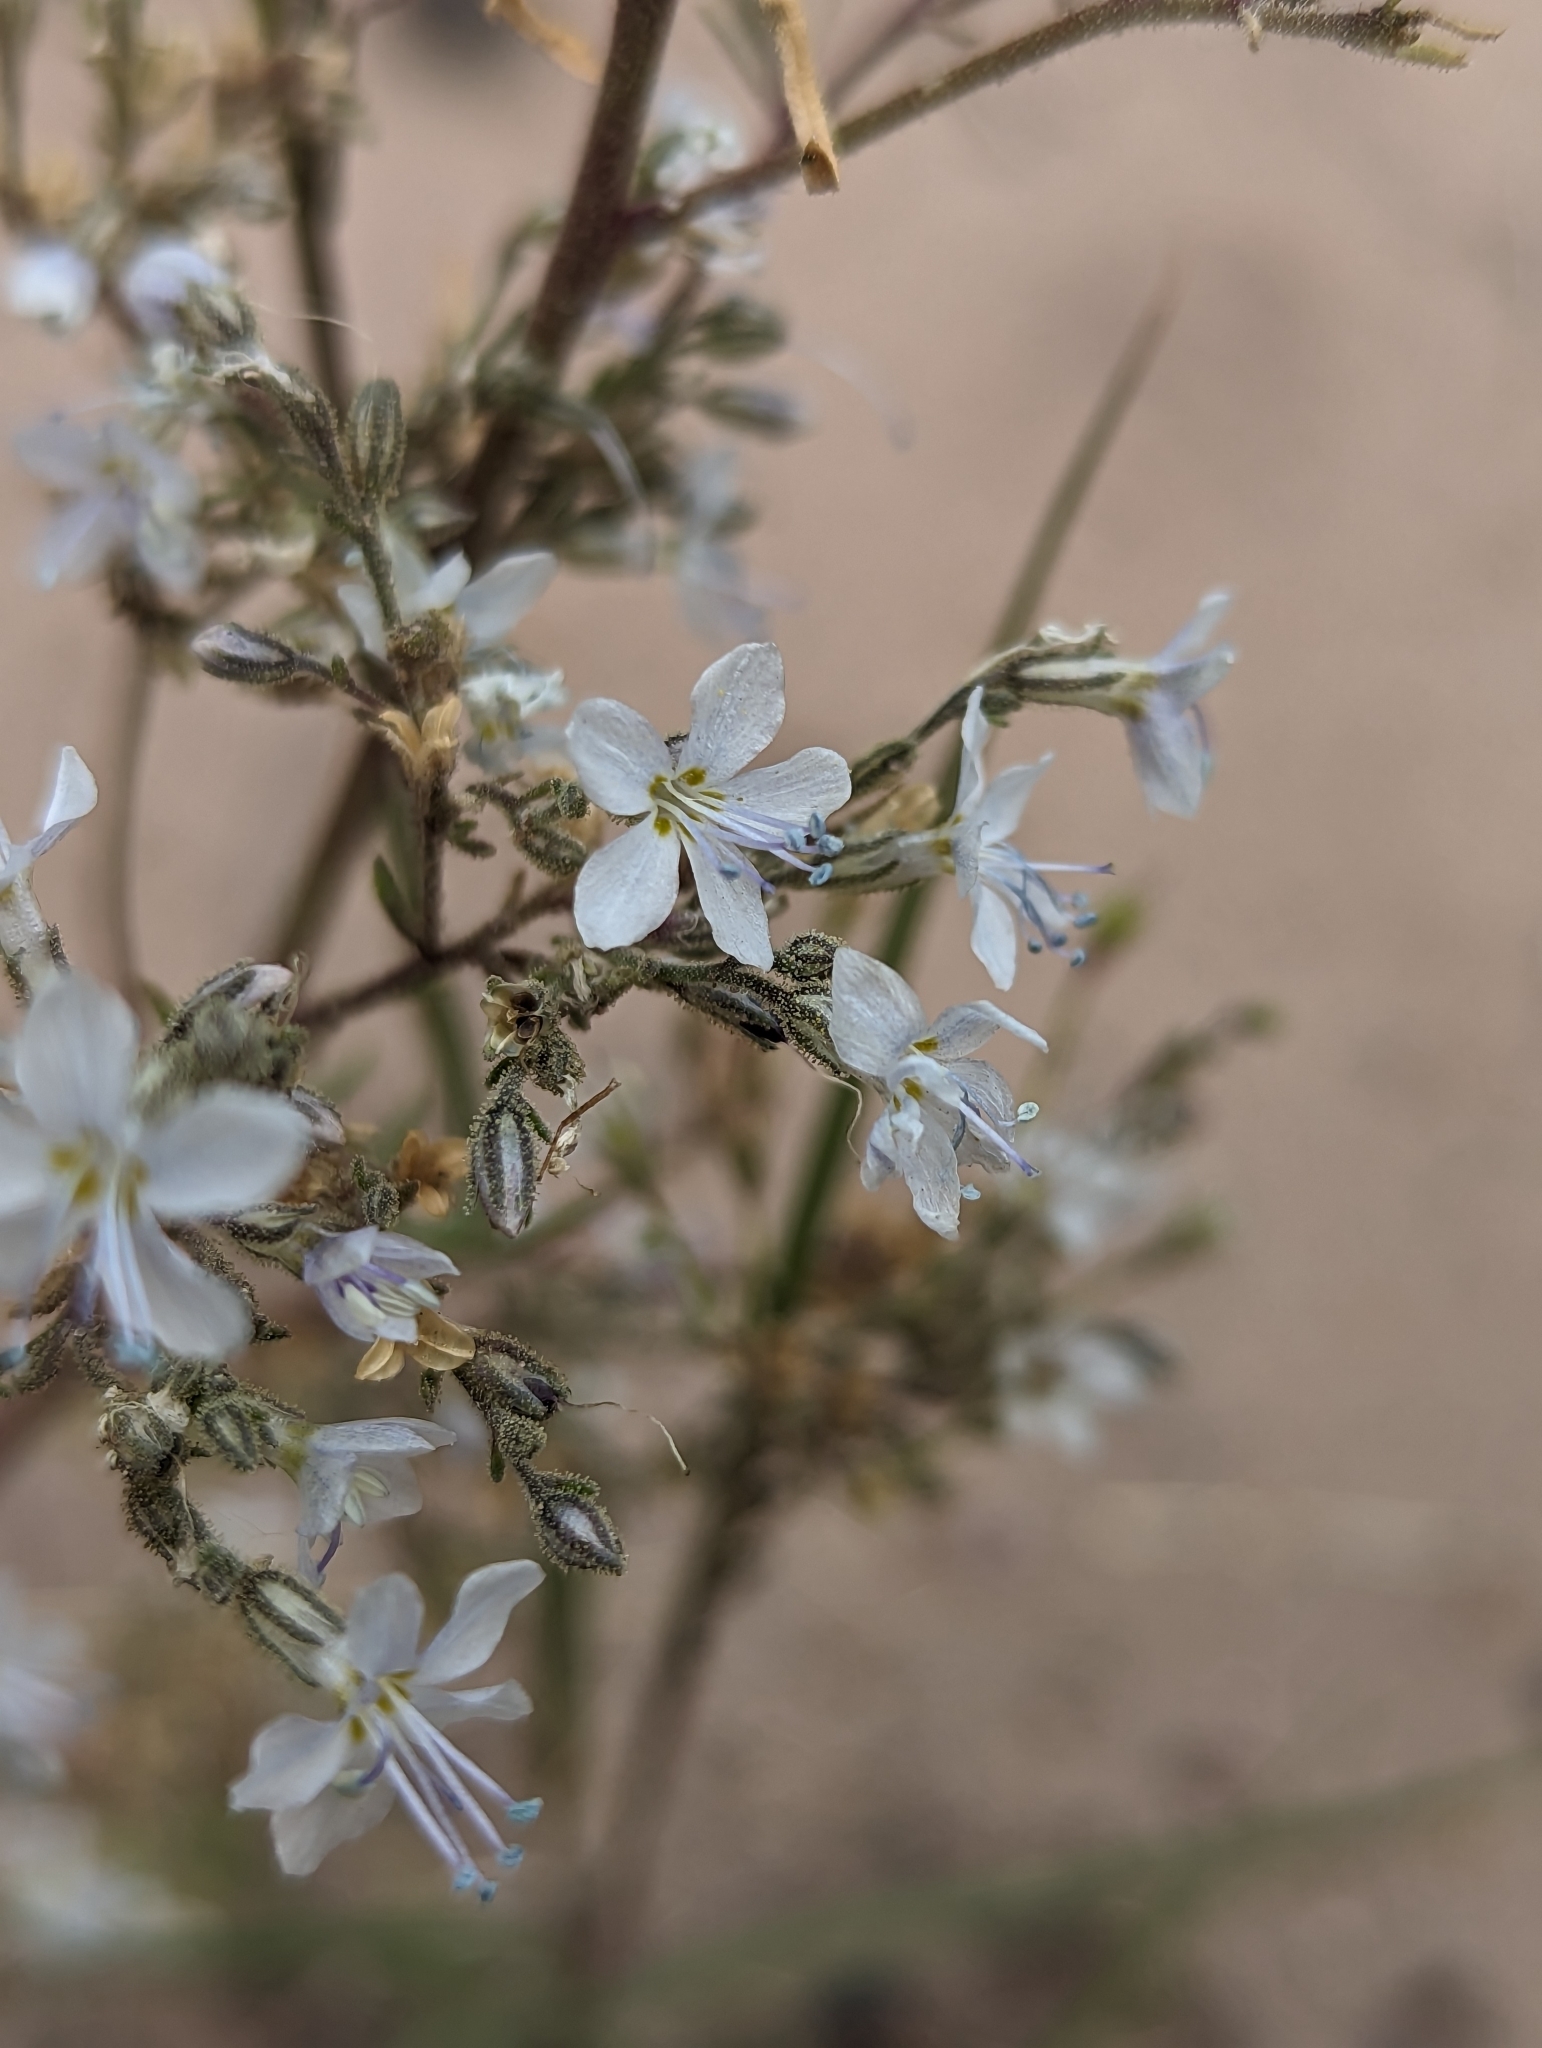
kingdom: Plantae
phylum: Tracheophyta
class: Magnoliopsida
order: Ericales
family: Polemoniaceae
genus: Aliciella
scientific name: Aliciella pinnatifida
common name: Sticky gilia
